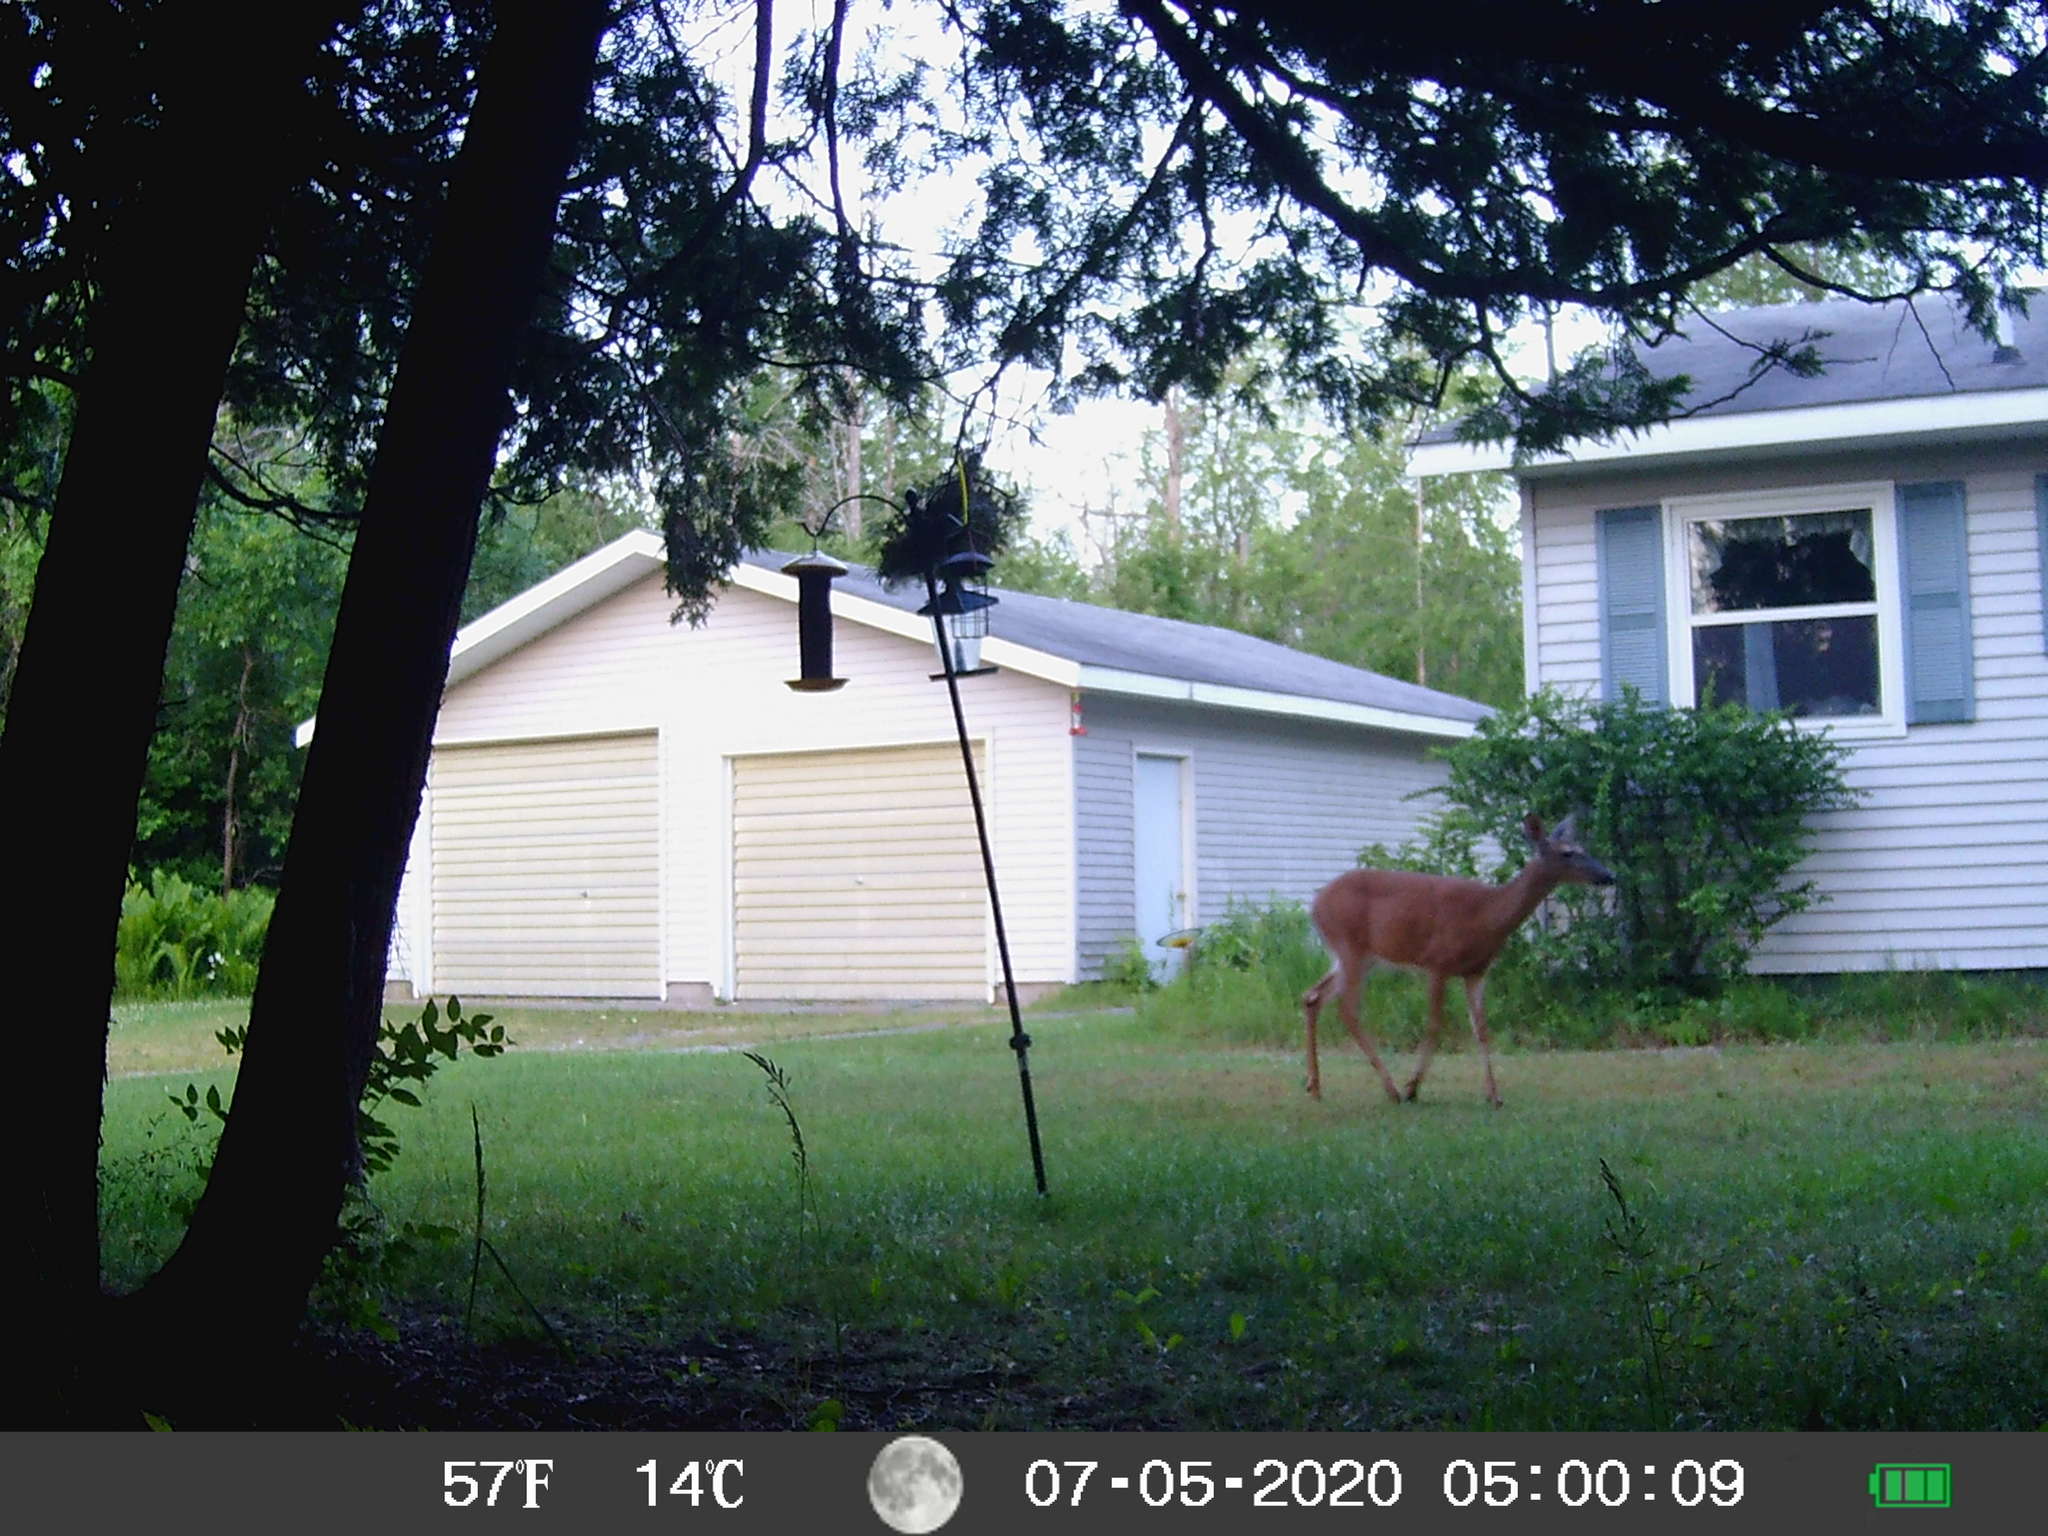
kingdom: Animalia
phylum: Chordata
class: Mammalia
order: Artiodactyla
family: Cervidae
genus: Odocoileus
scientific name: Odocoileus virginianus
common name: White-tailed deer
